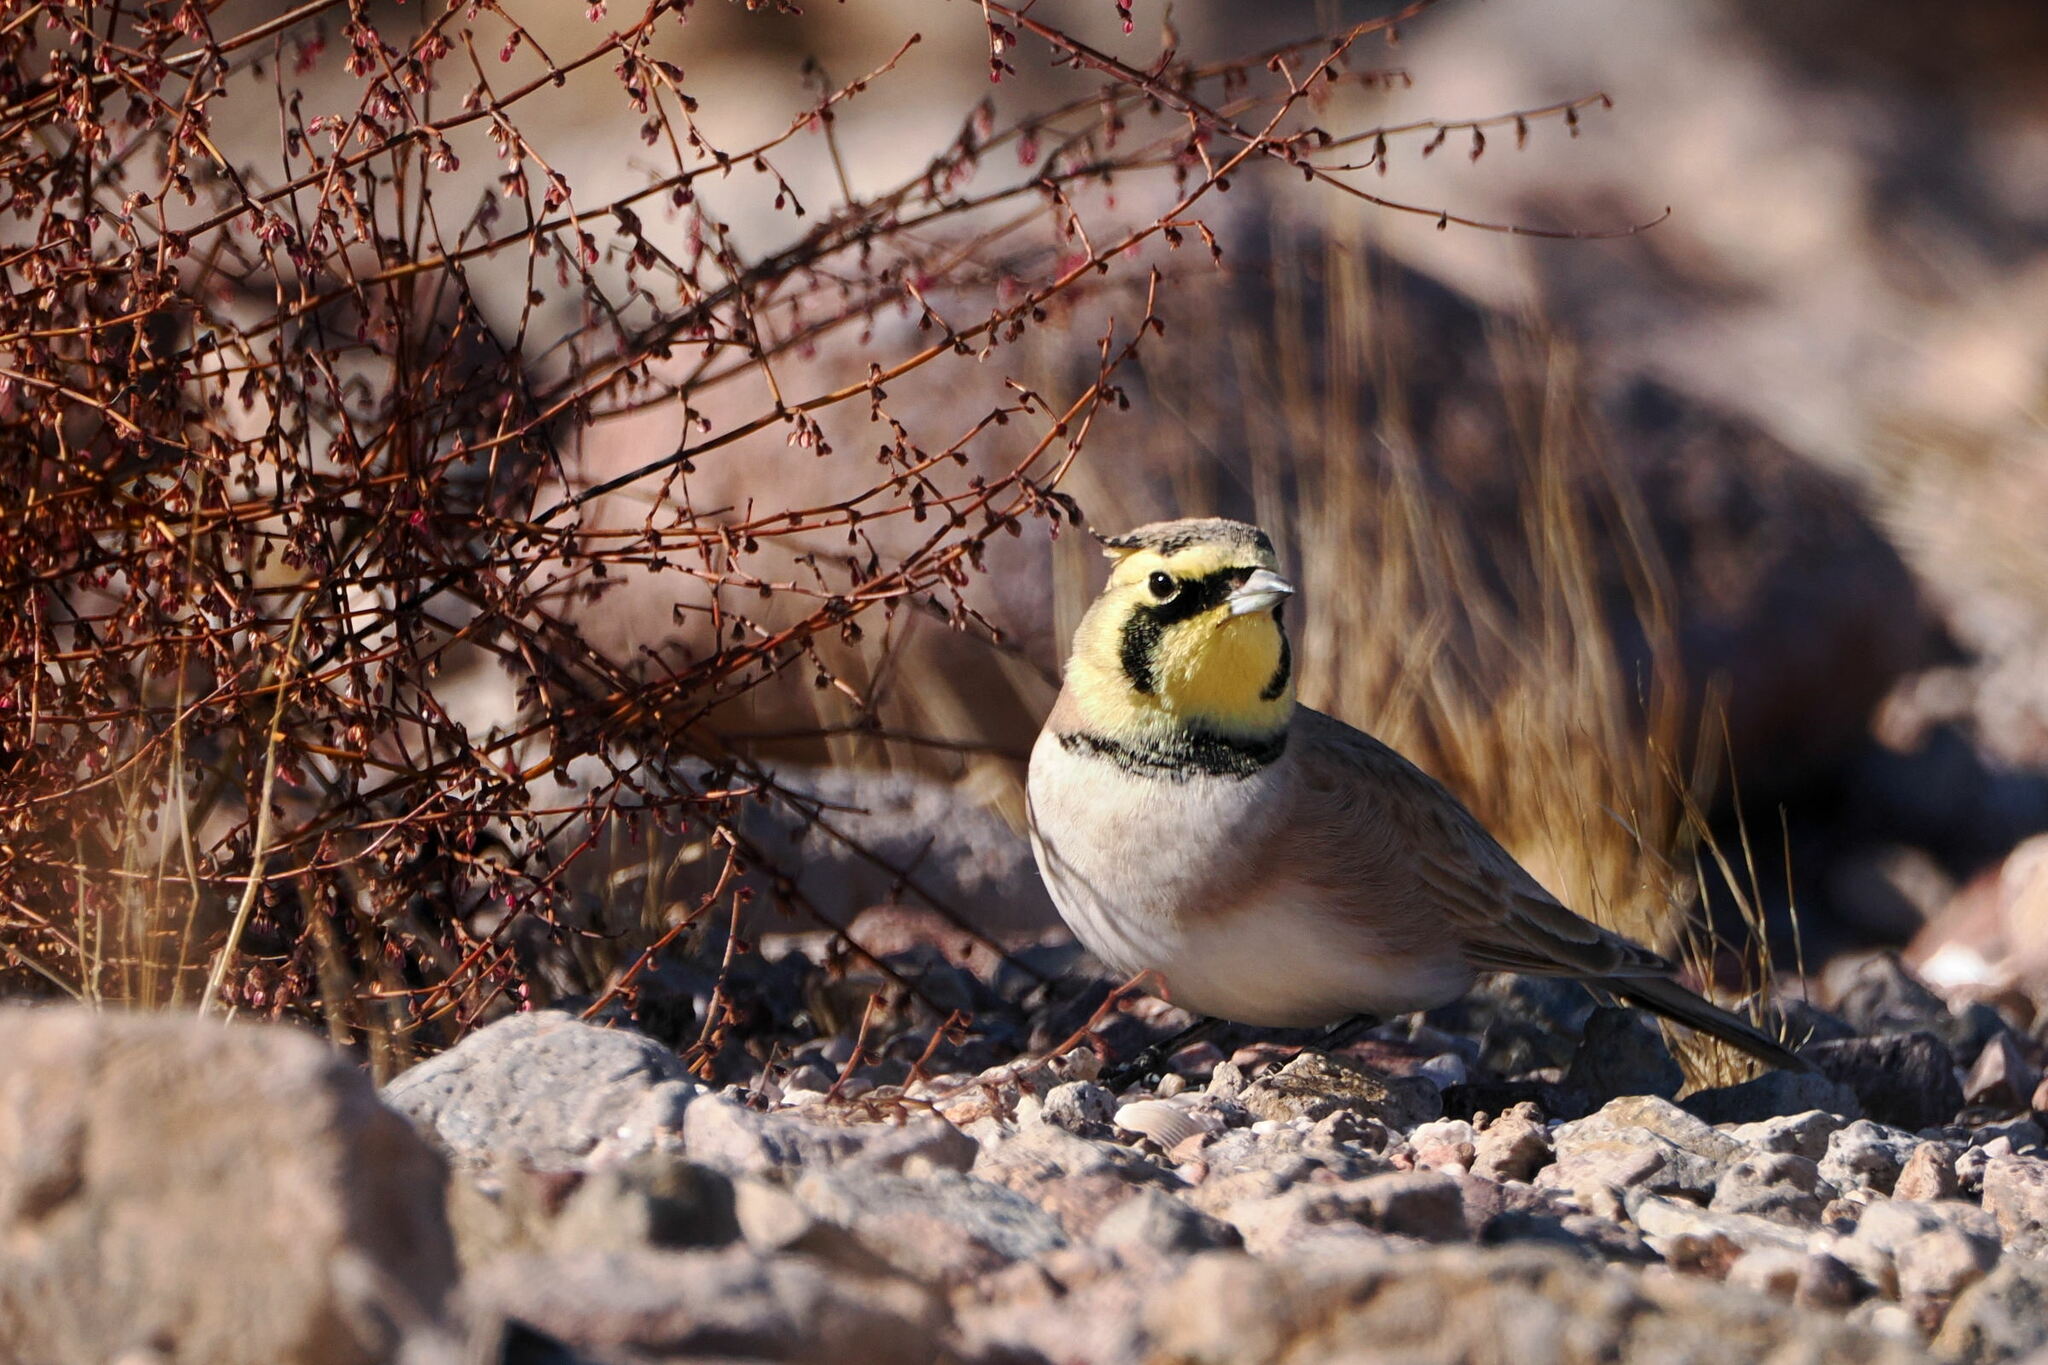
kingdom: Animalia
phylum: Chordata
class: Aves
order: Passeriformes
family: Alaudidae
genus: Eremophila
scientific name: Eremophila alpestris
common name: Horned lark
